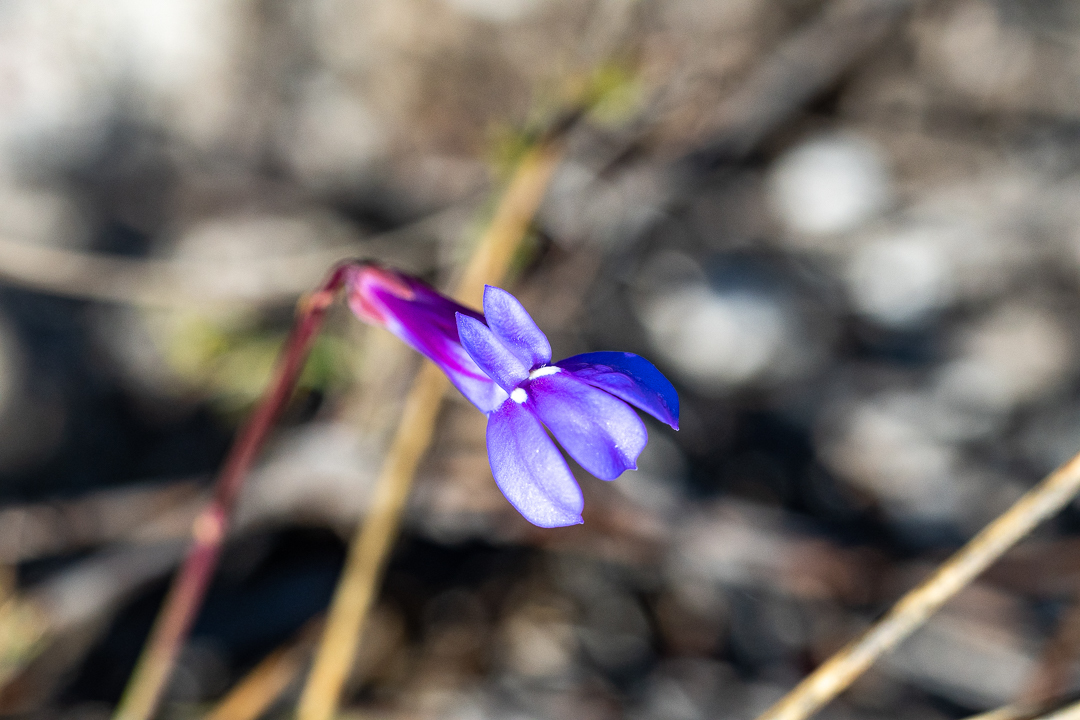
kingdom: Plantae
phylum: Tracheophyta
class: Magnoliopsida
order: Asterales
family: Campanulaceae
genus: Lobelia
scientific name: Lobelia coronopifolia
